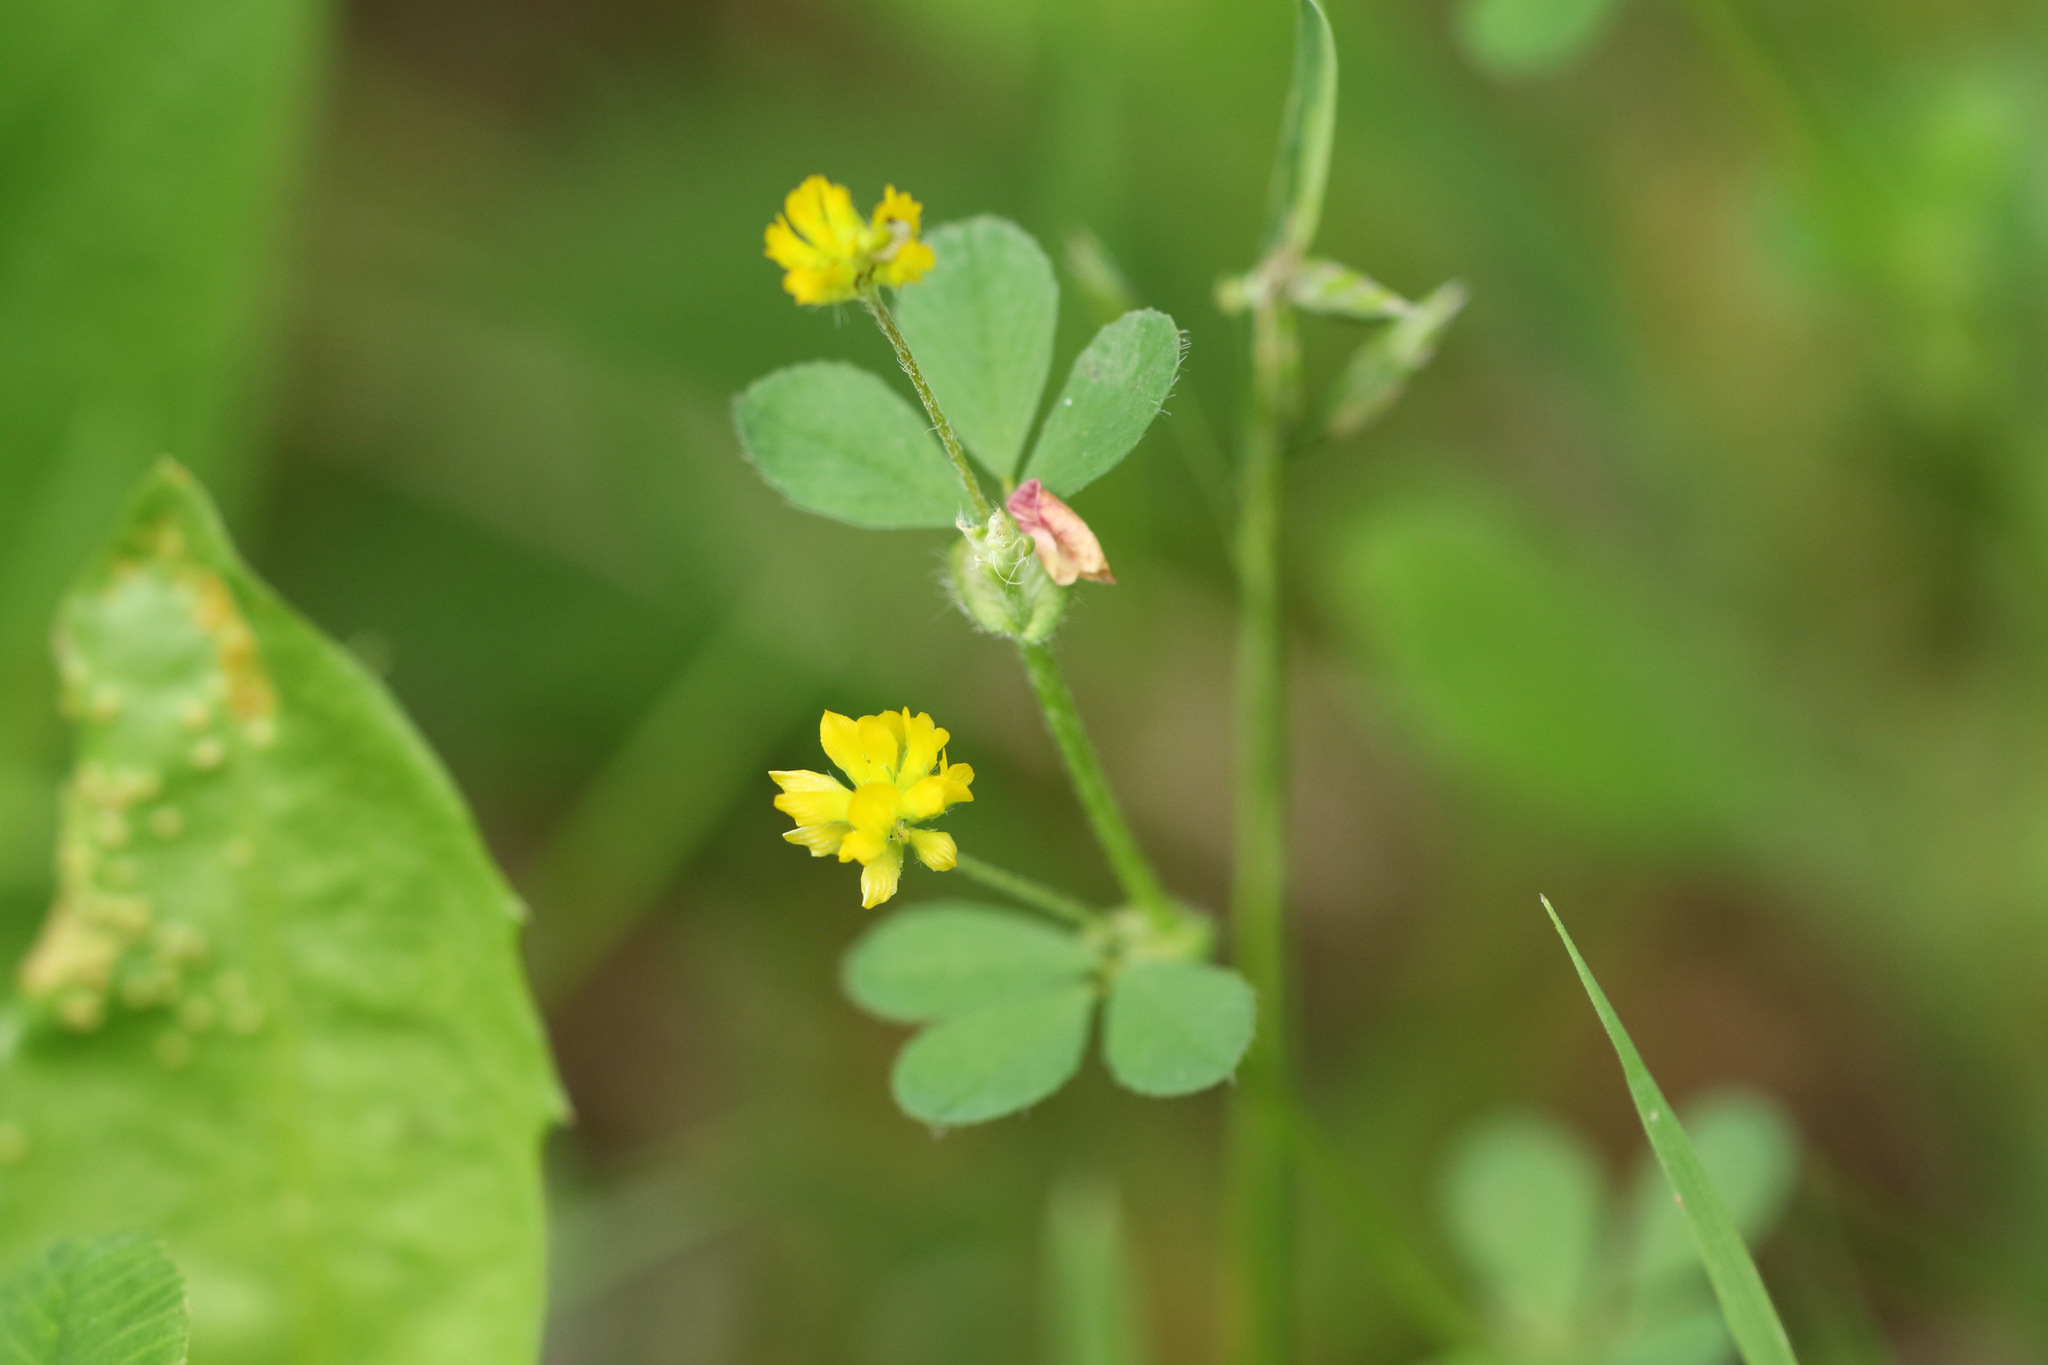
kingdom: Plantae
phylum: Tracheophyta
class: Magnoliopsida
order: Fabales
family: Fabaceae
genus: Trifolium
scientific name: Trifolium dubium
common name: Suckling clover
